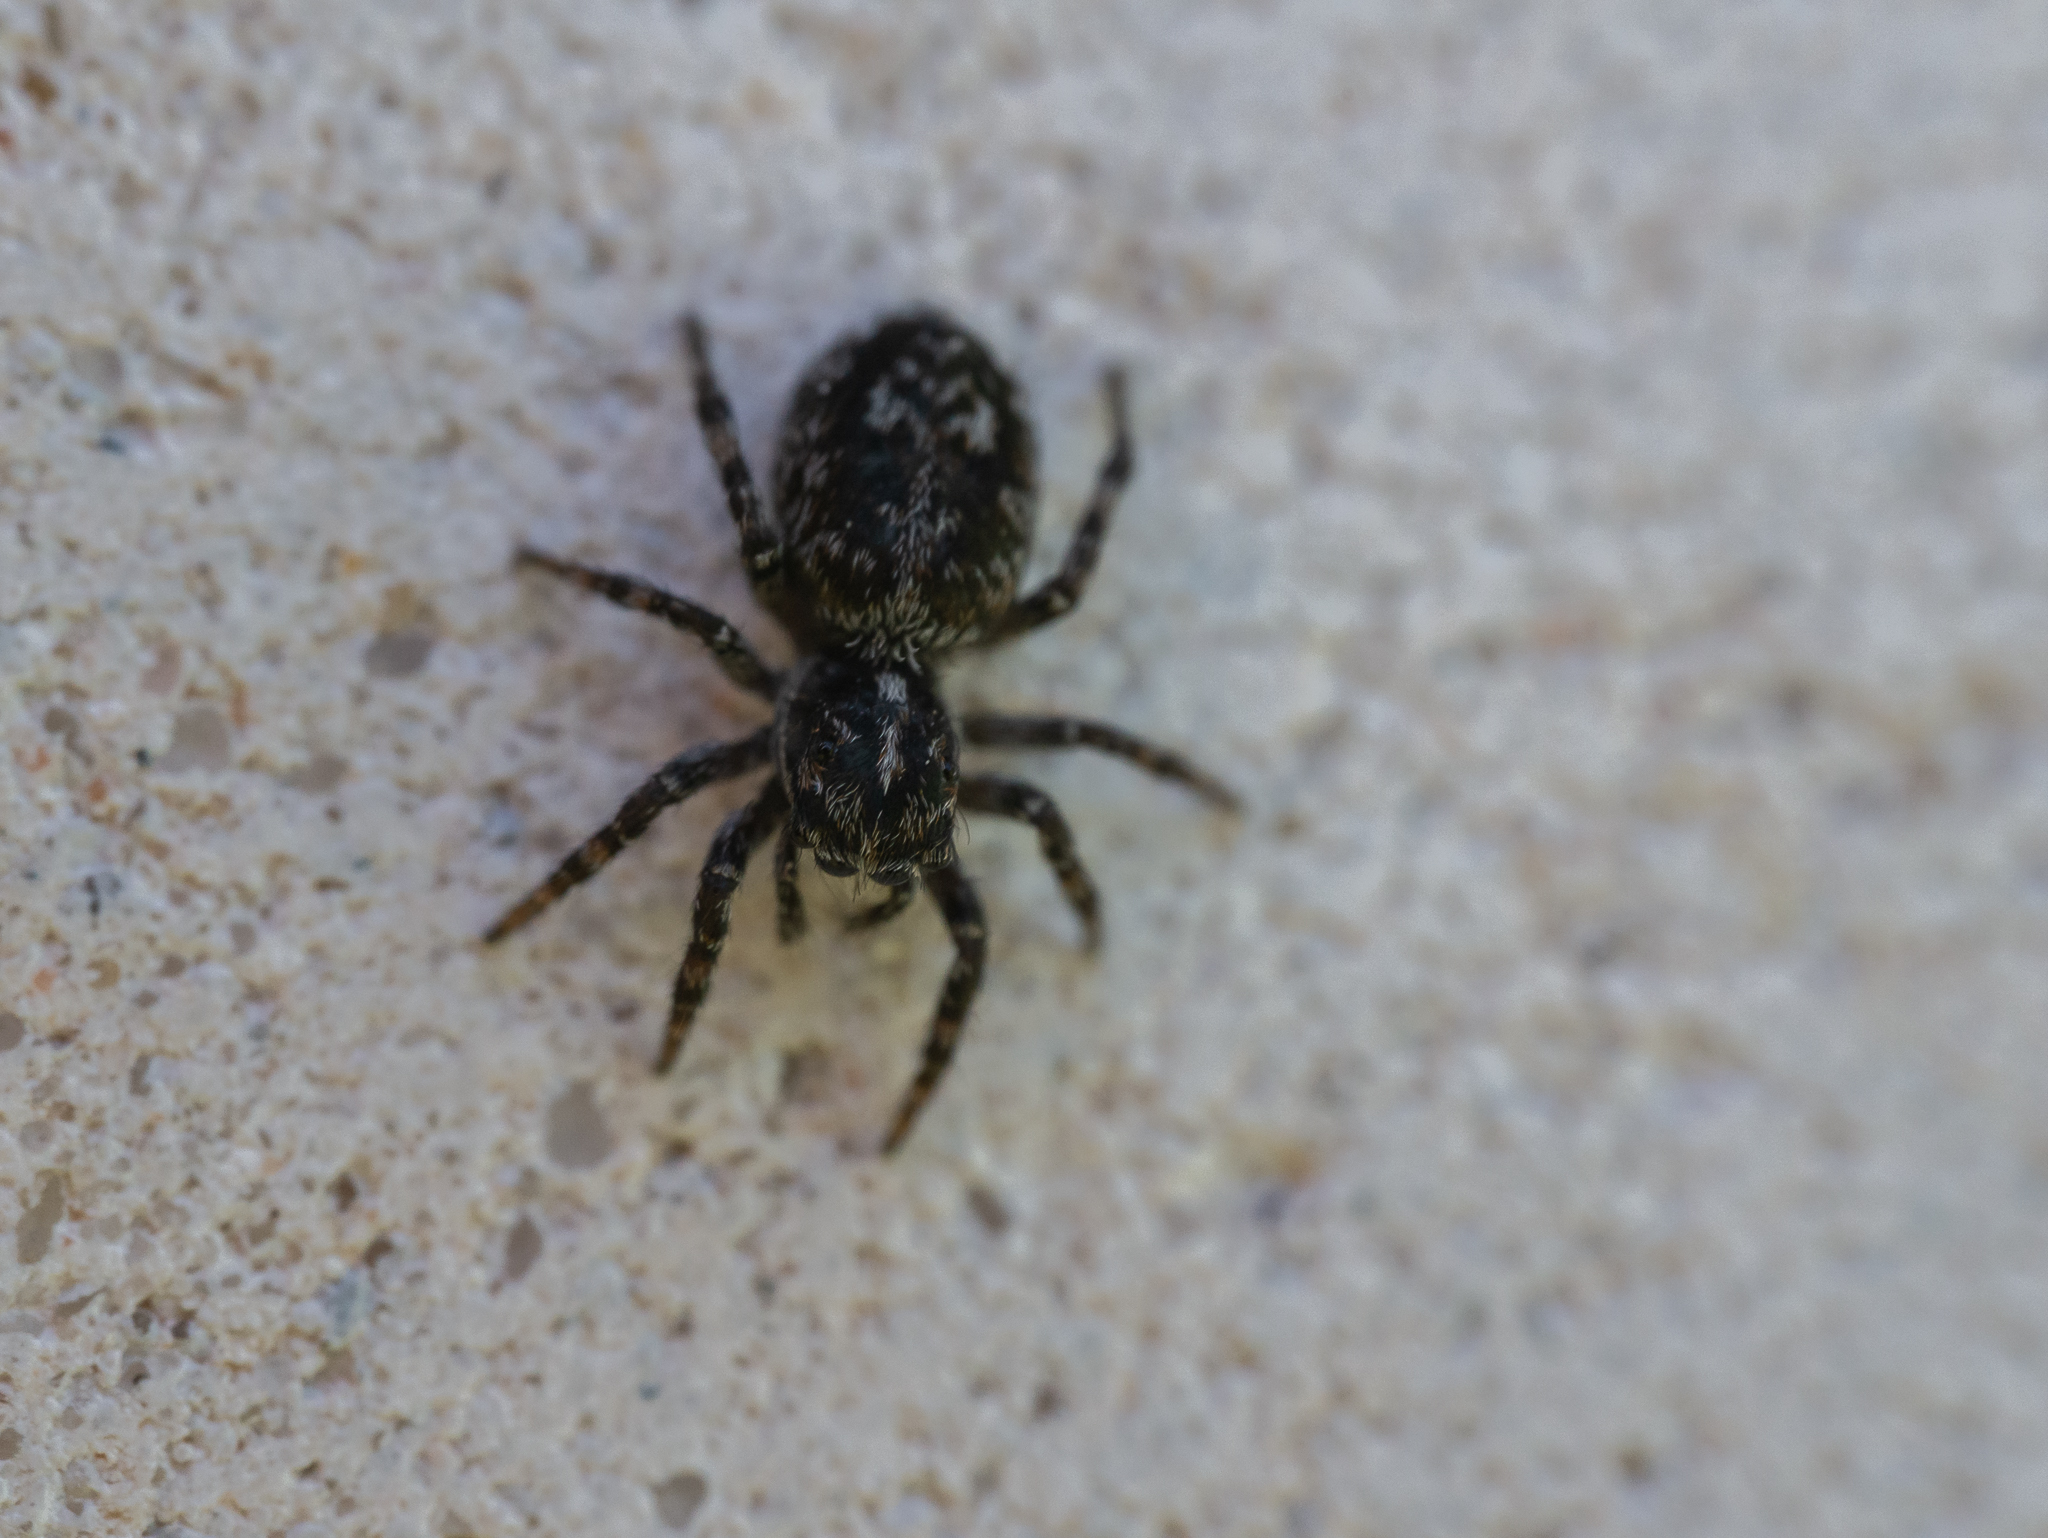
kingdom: Animalia
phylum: Arthropoda
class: Arachnida
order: Araneae
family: Salticidae
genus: Attulus
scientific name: Attulus terebratus
